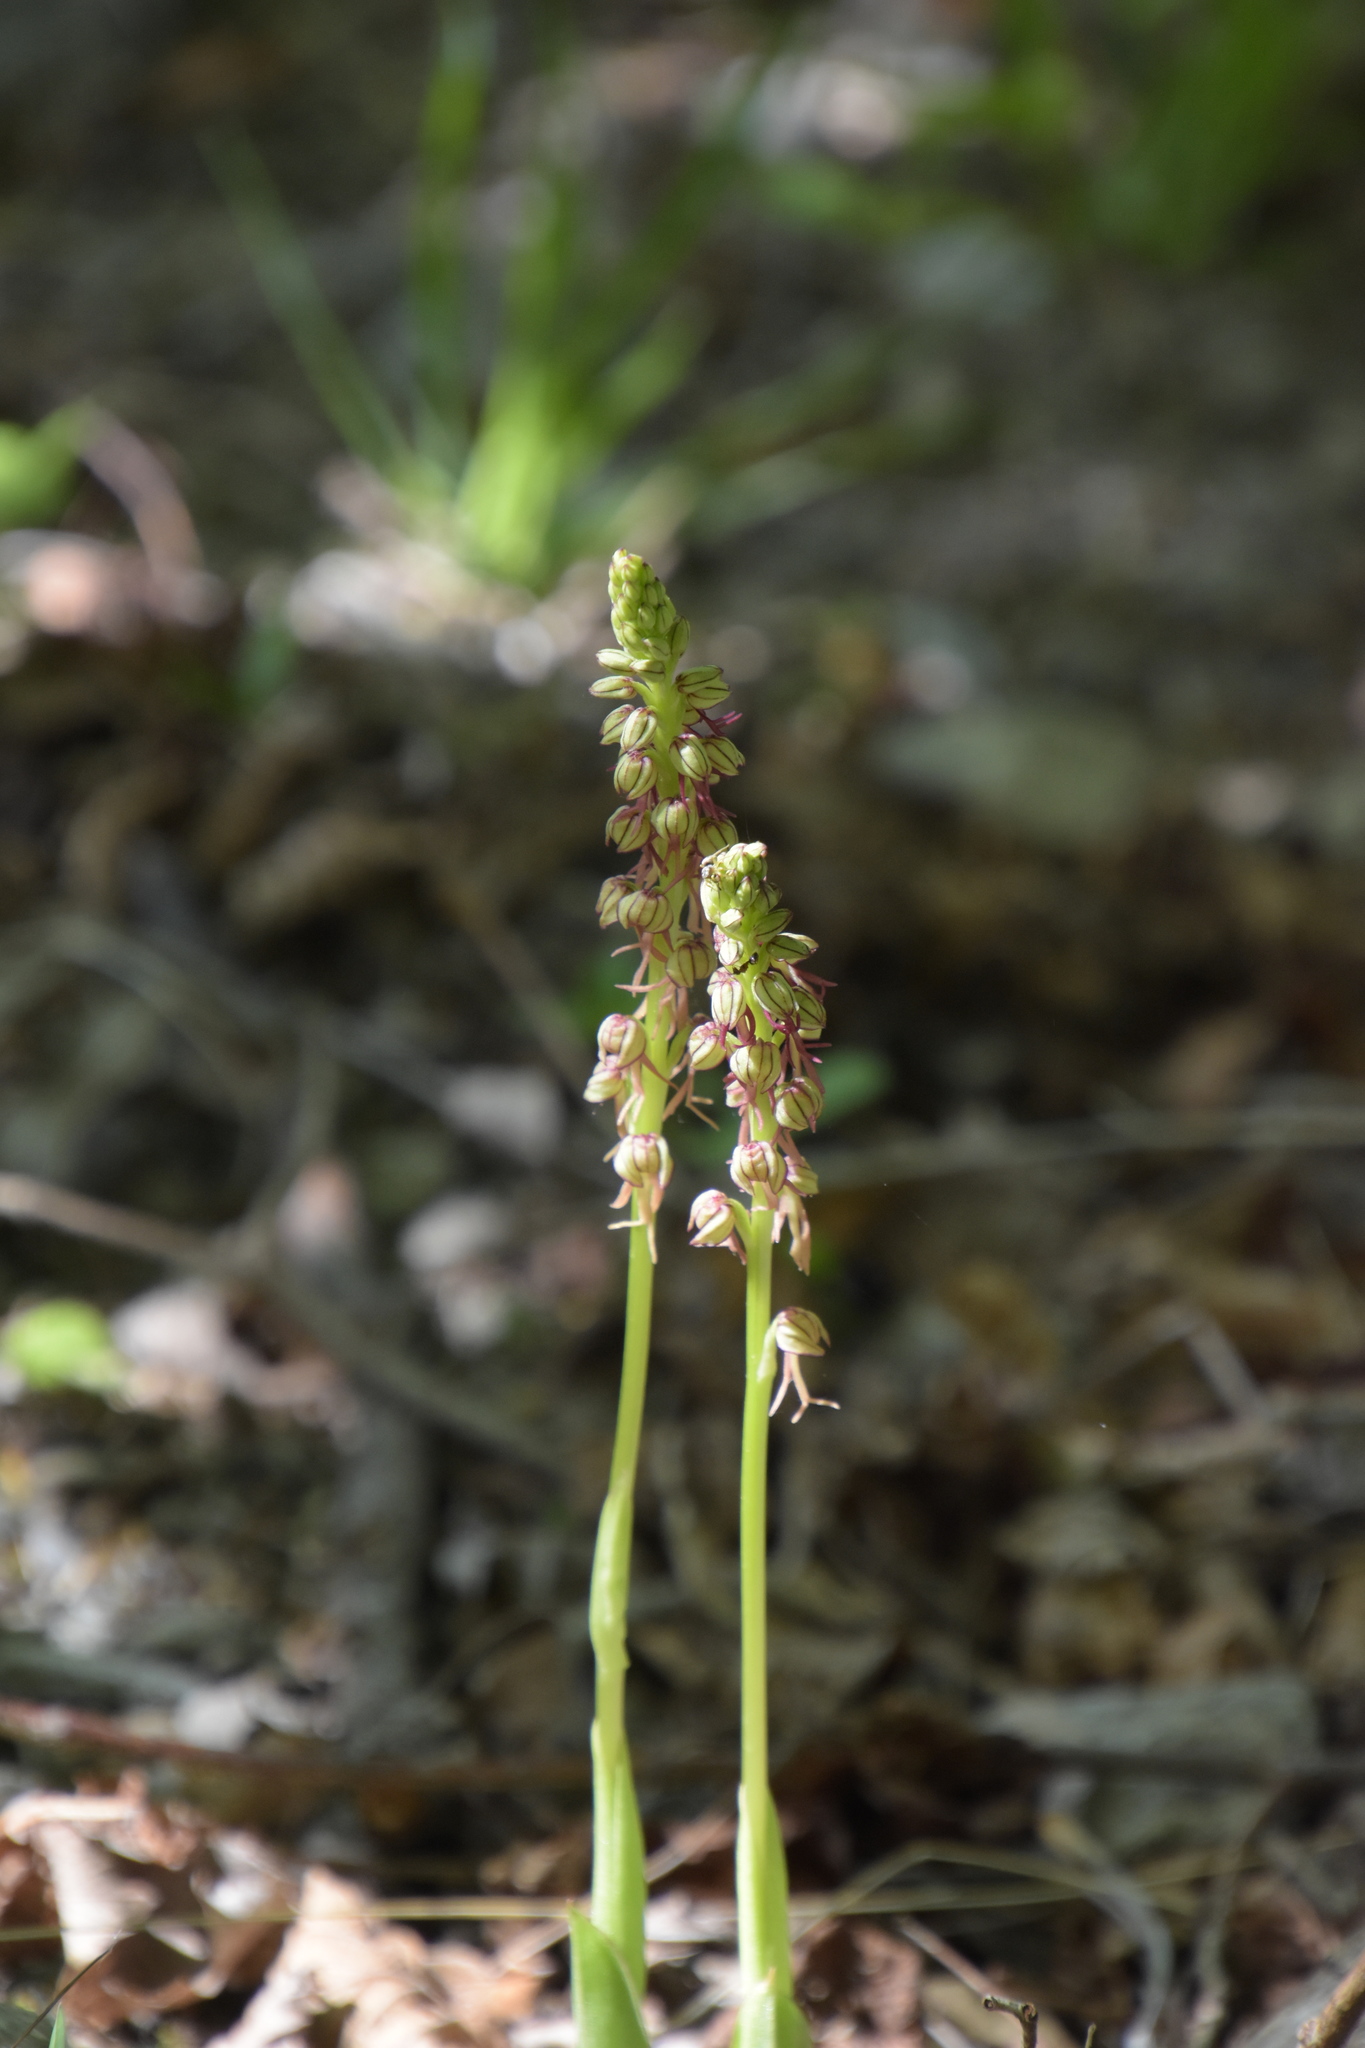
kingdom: Plantae
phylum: Tracheophyta
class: Liliopsida
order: Asparagales
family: Orchidaceae
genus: Orchis
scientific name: Orchis anthropophora
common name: Man orchid
